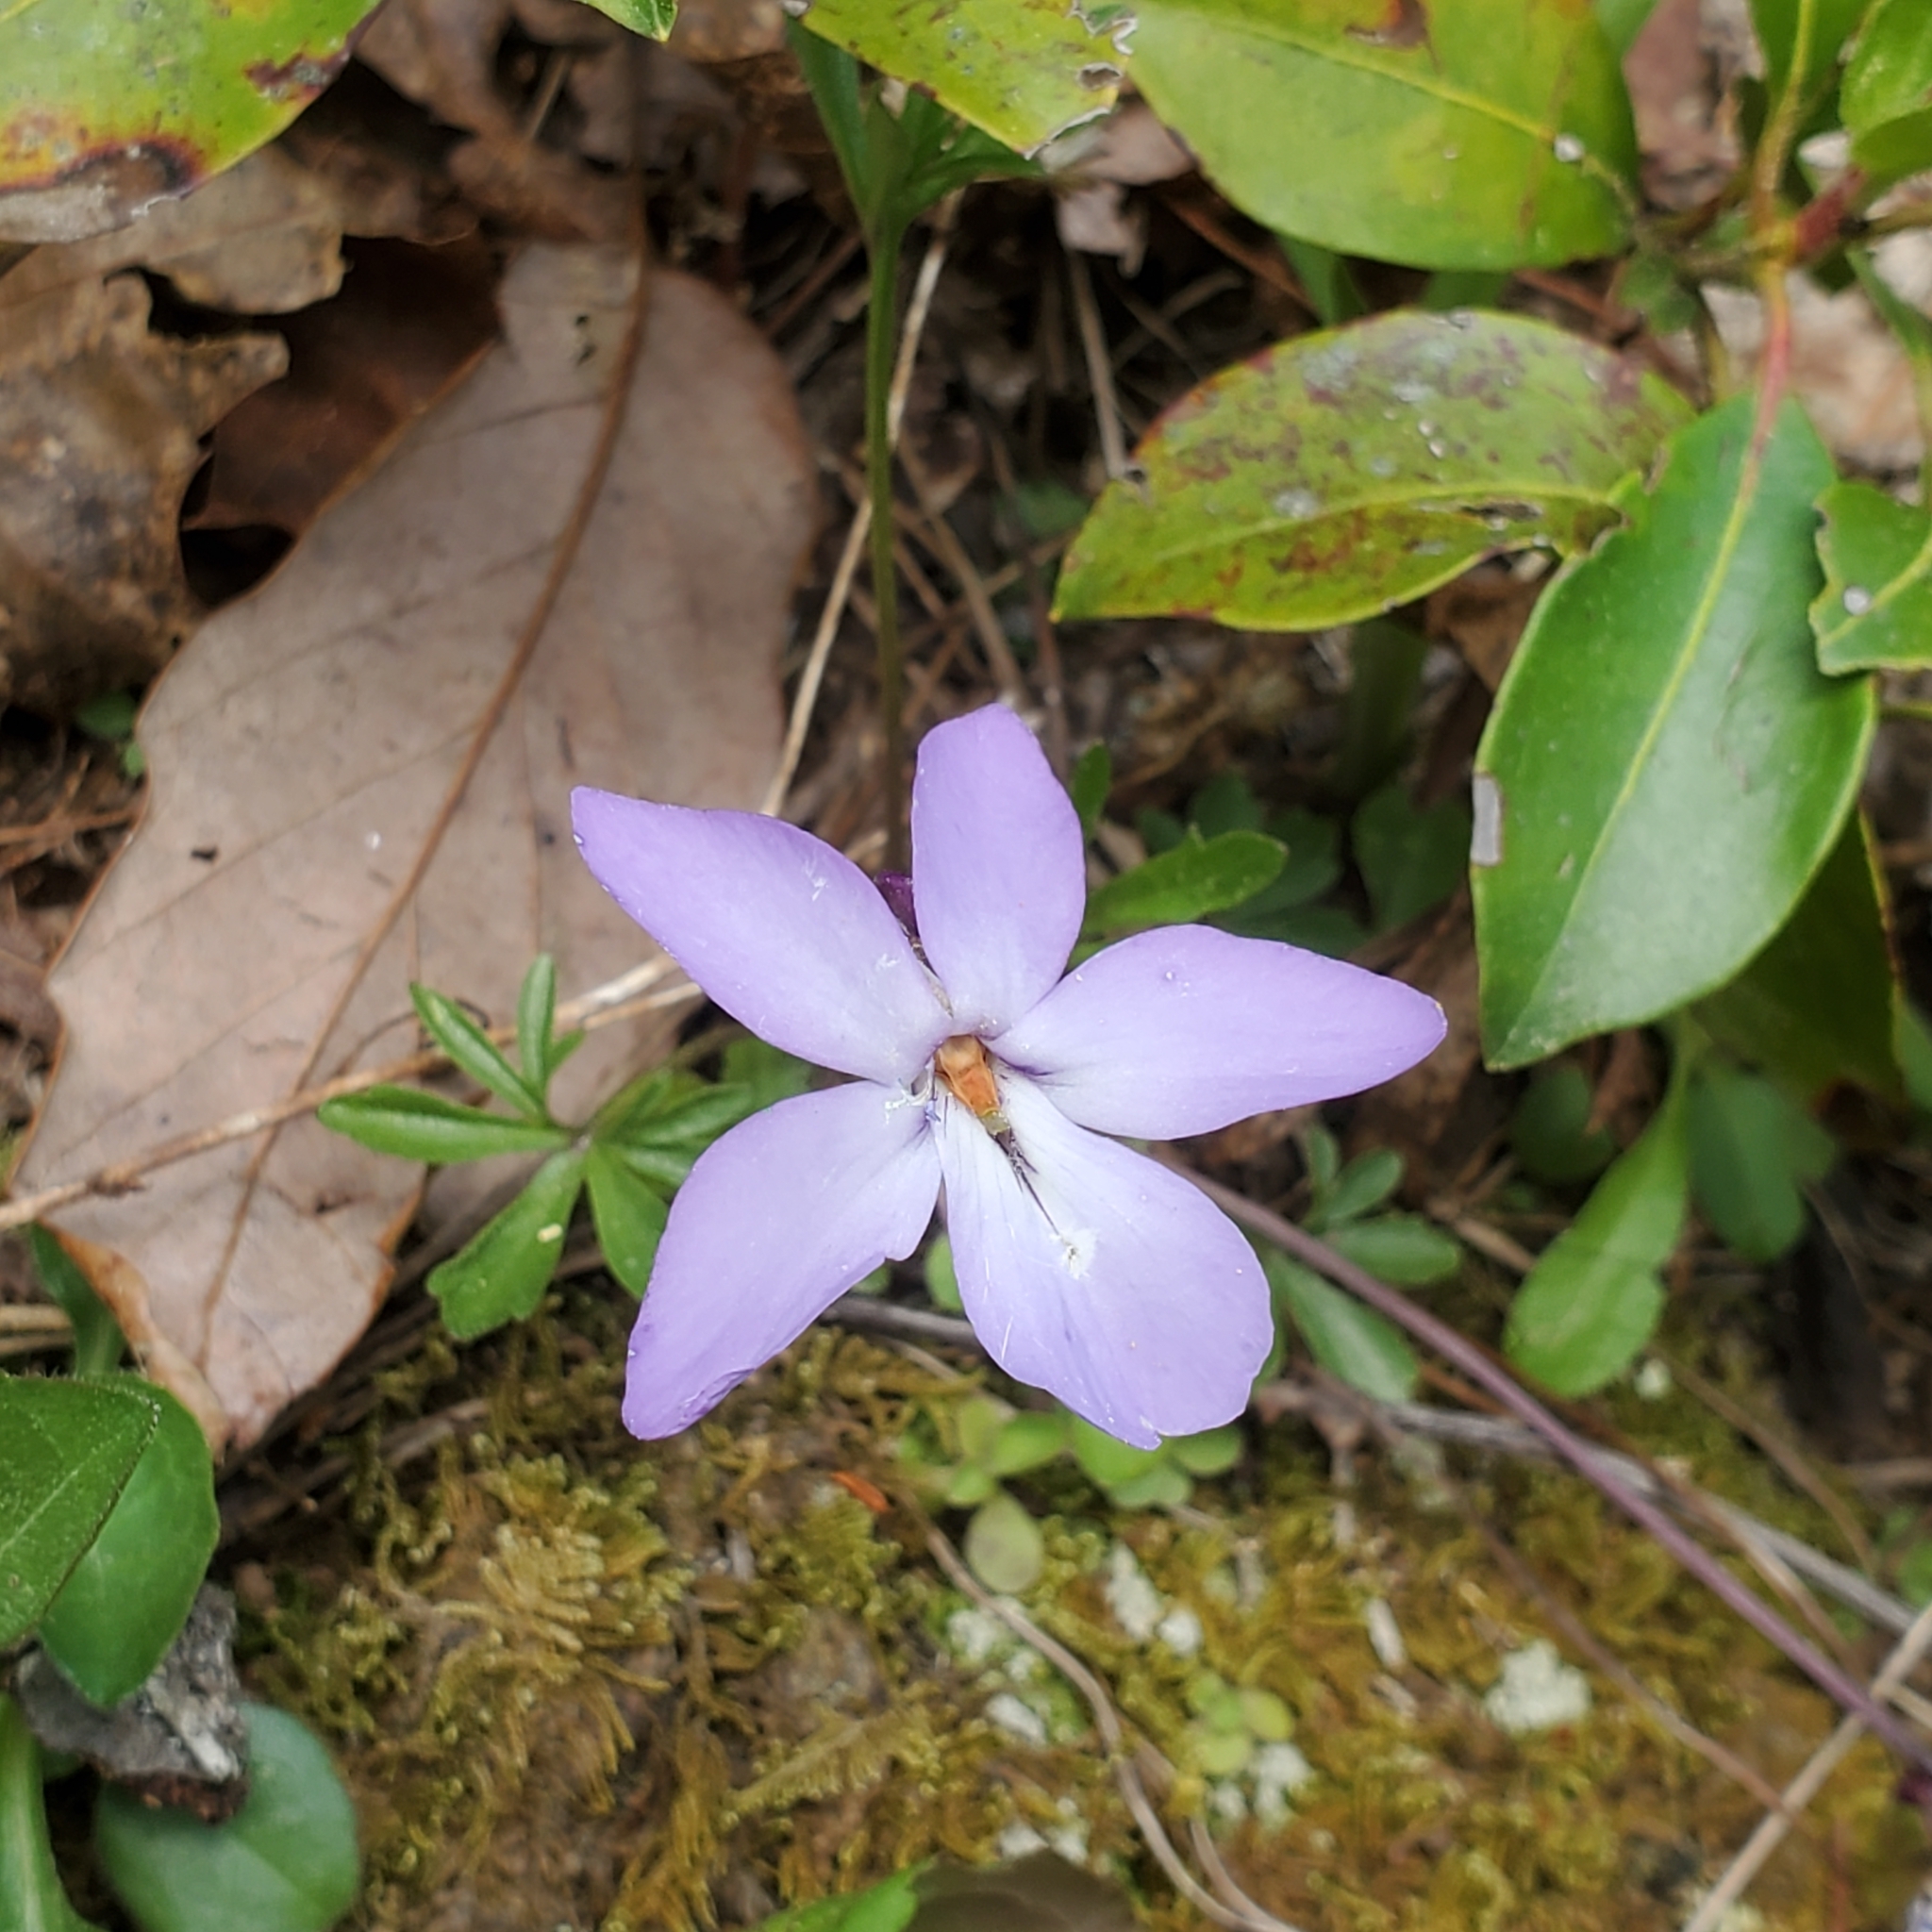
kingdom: Plantae
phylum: Tracheophyta
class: Magnoliopsida
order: Malpighiales
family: Violaceae
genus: Viola
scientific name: Viola pedata
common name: Pansy violet
